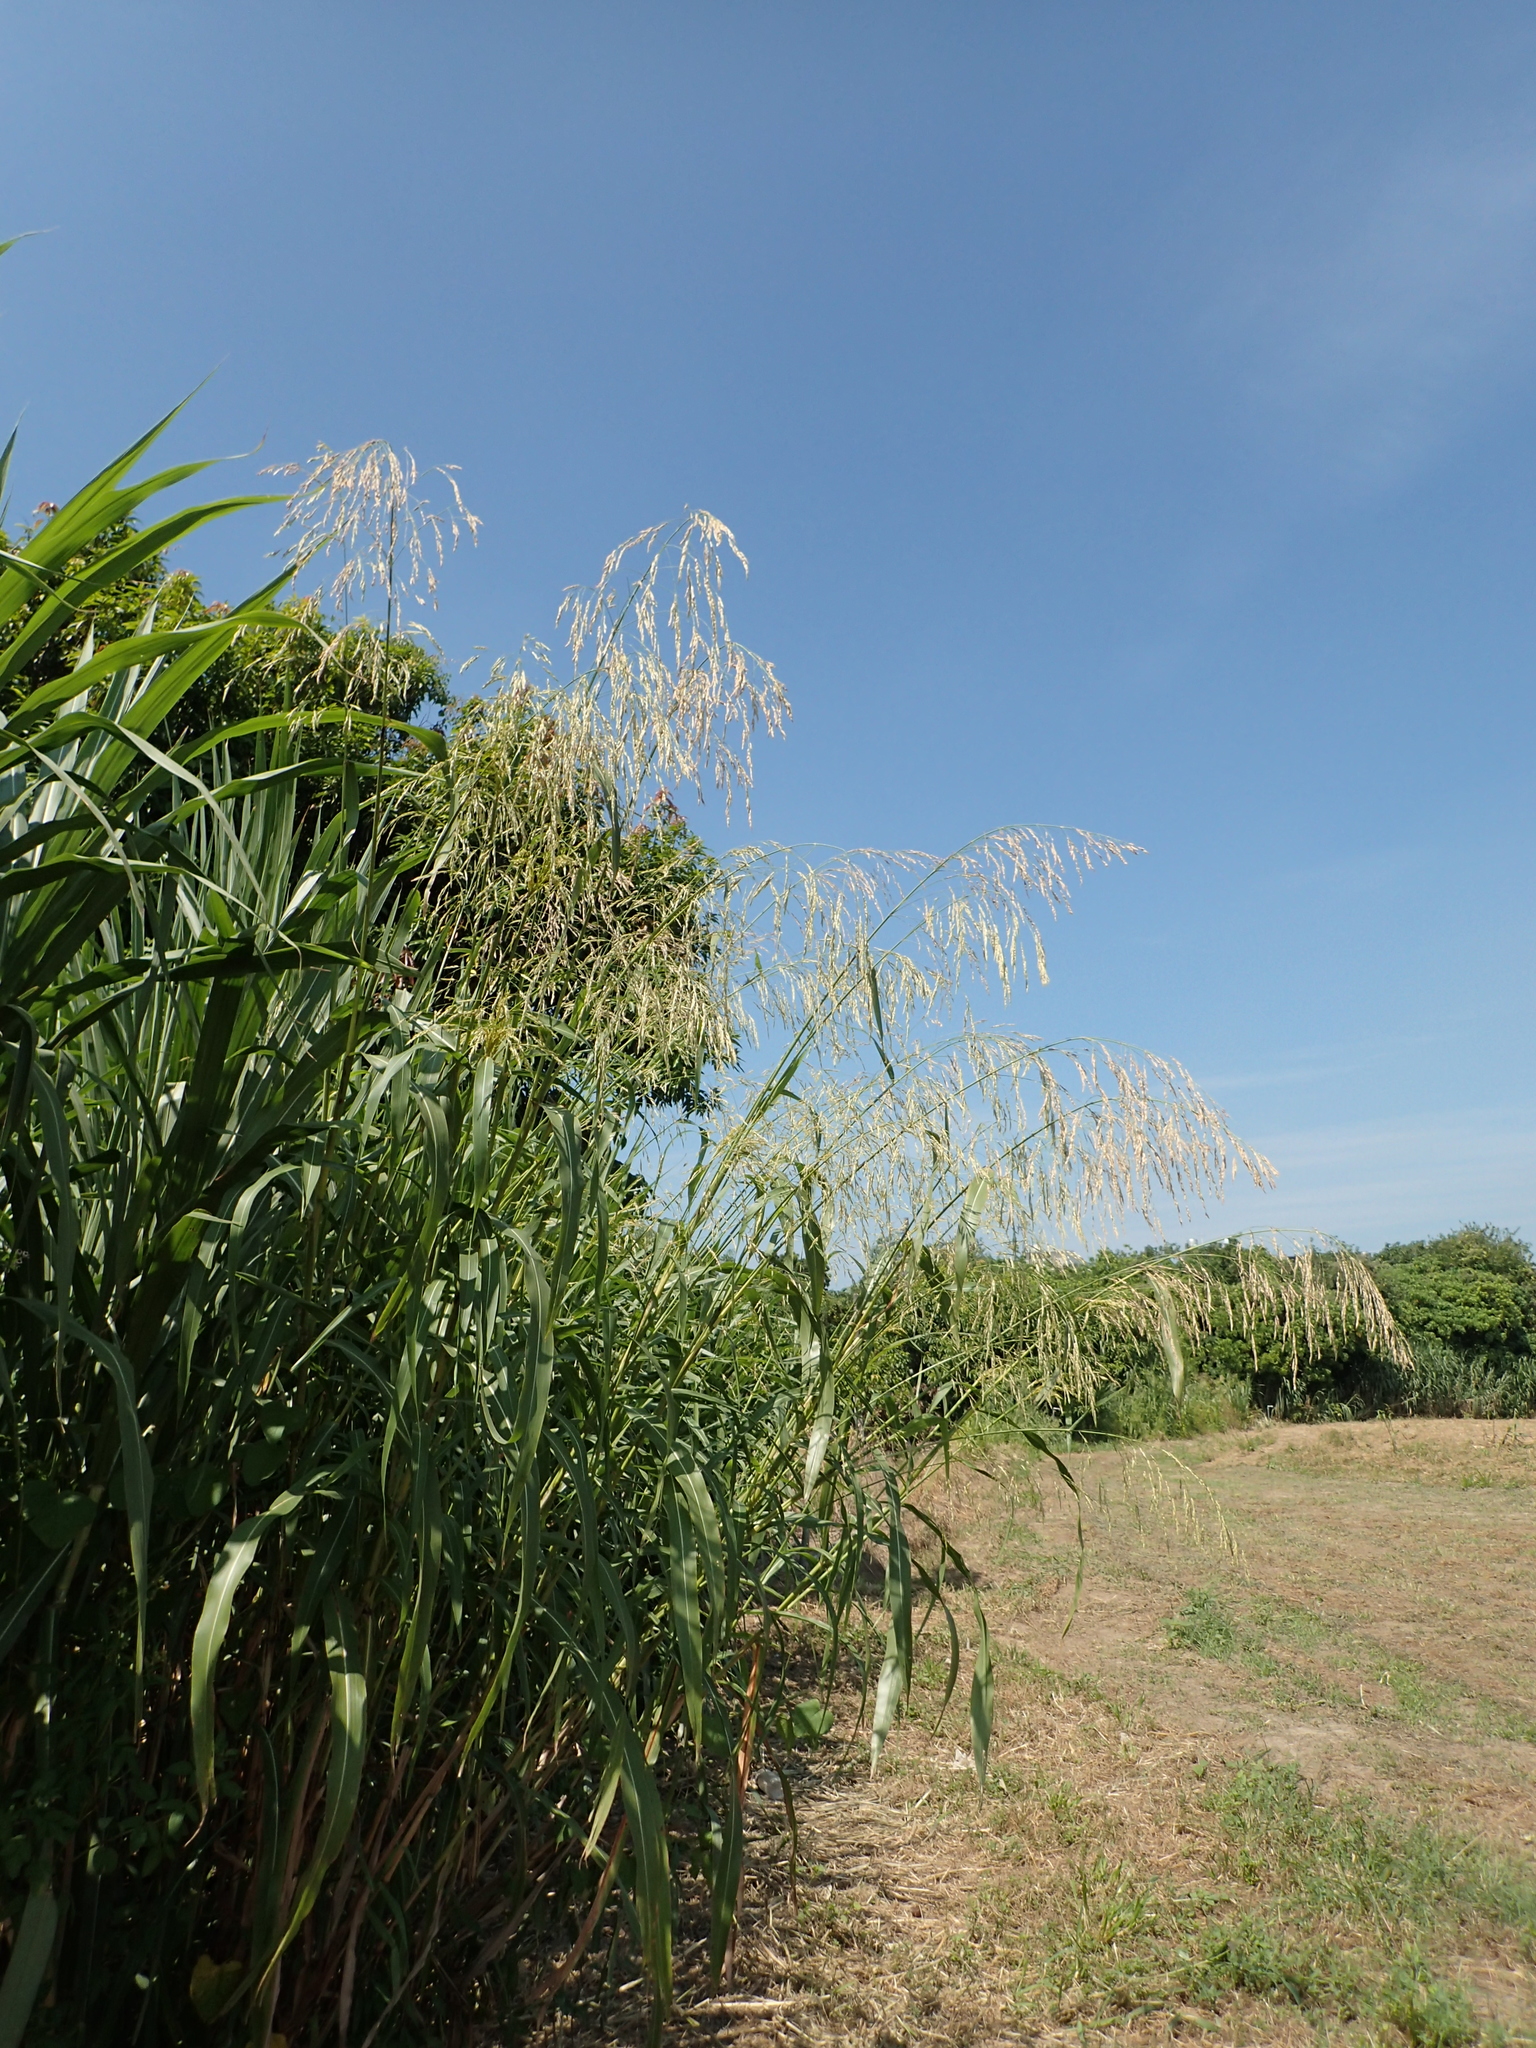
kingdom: Plantae
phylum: Tracheophyta
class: Liliopsida
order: Poales
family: Poaceae
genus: Sorghum
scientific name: Sorghum arundinaceum
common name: Sorghum
